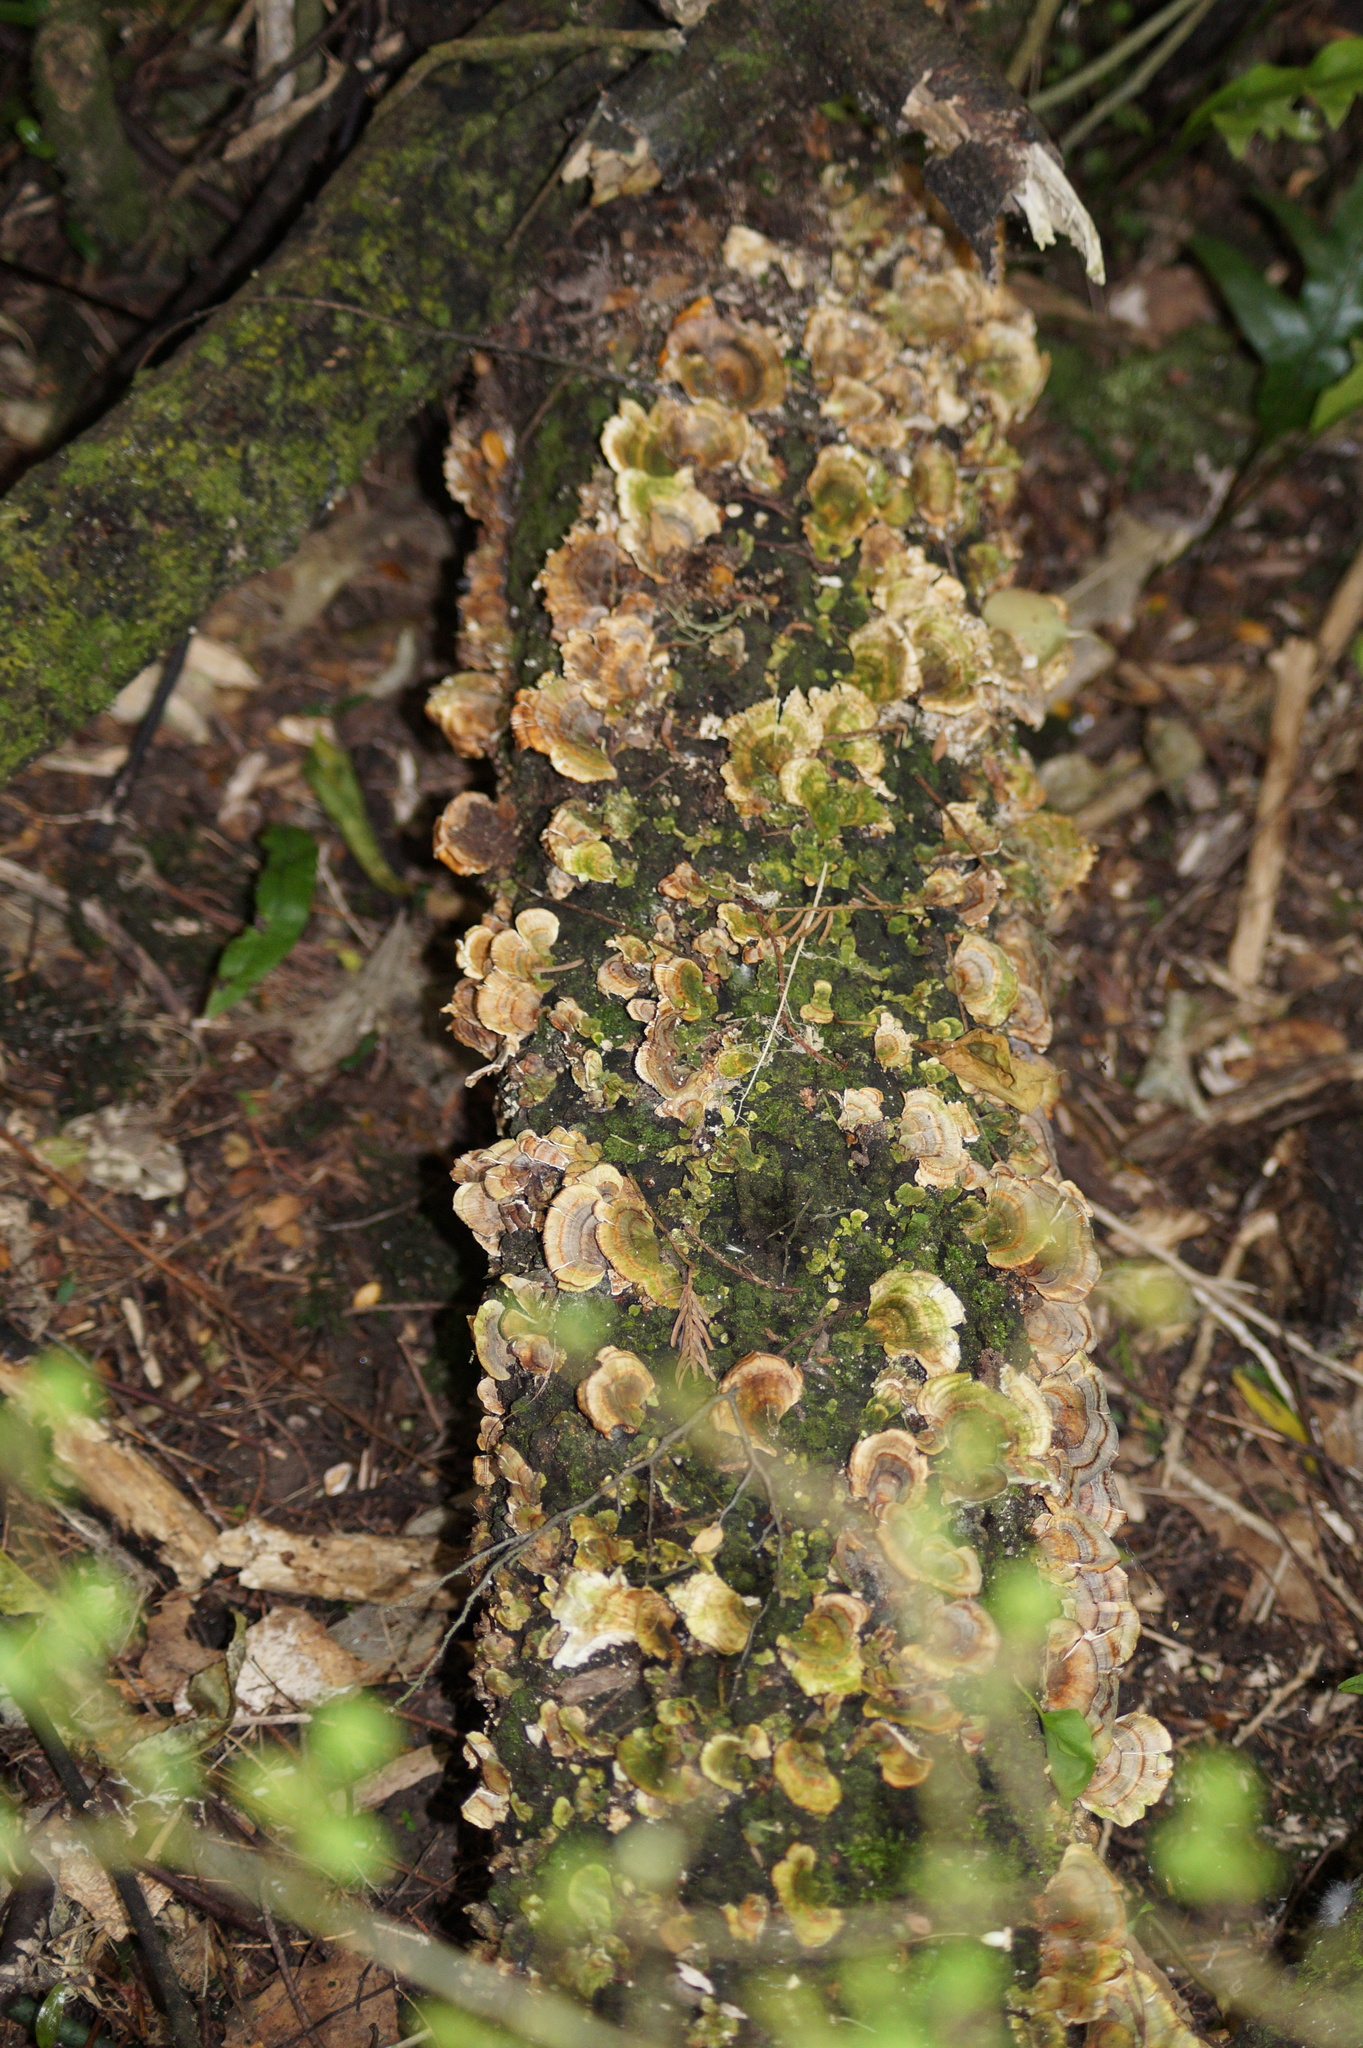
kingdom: Fungi
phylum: Basidiomycota
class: Agaricomycetes
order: Polyporales
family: Polyporaceae
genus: Trametes
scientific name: Trametes versicolor
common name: Turkeytail
